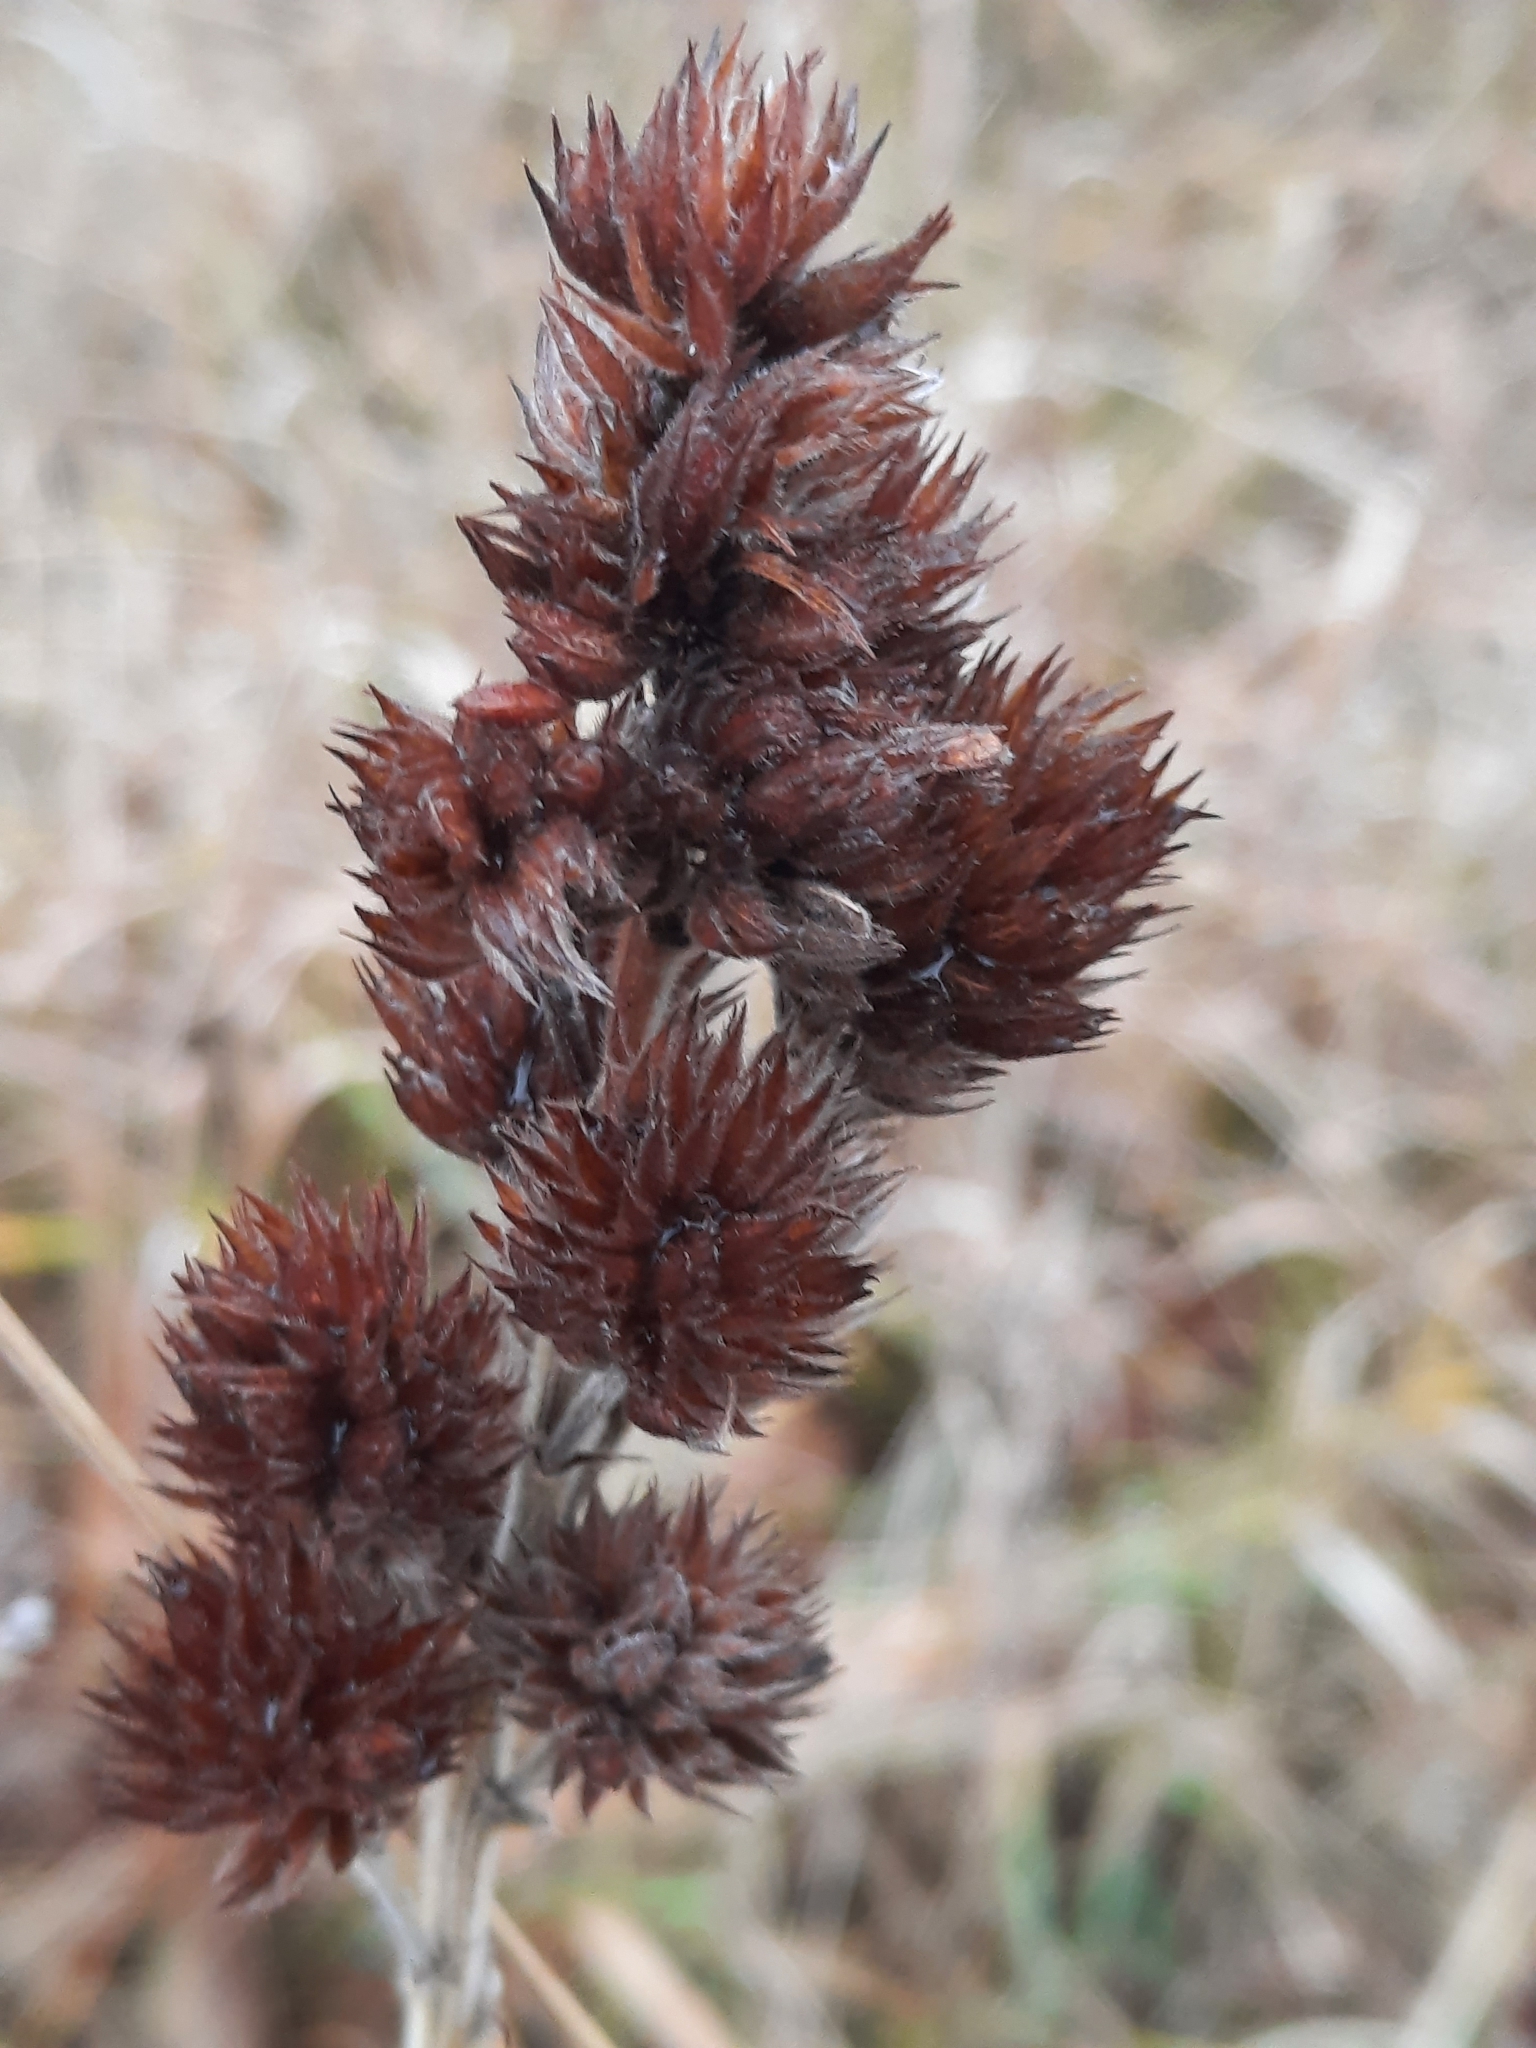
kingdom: Plantae
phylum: Tracheophyta
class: Magnoliopsida
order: Fabales
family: Fabaceae
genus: Lespedeza
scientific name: Lespedeza capitata
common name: Dusty clover
